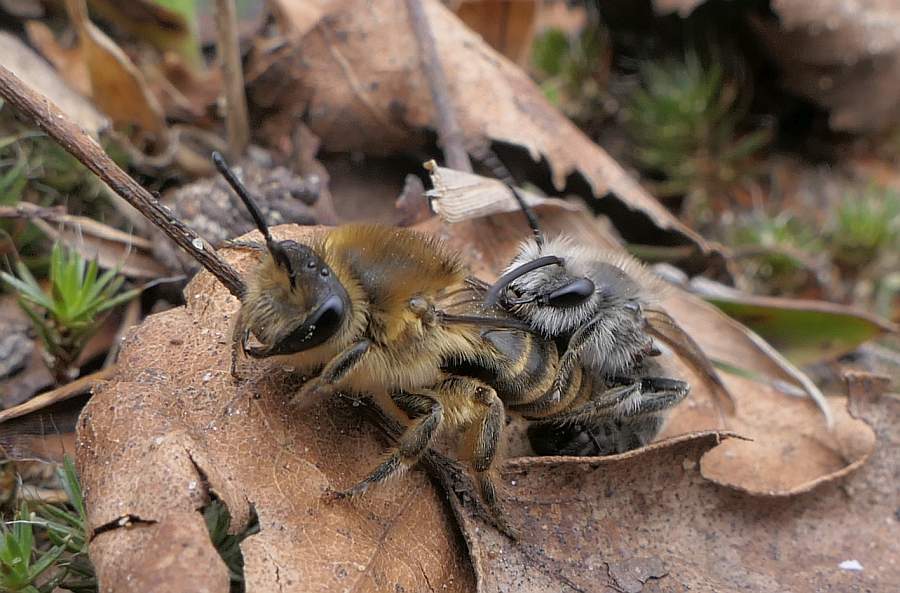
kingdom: Animalia
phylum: Arthropoda
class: Insecta
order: Hymenoptera
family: Colletidae
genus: Colletes
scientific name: Colletes inaequalis
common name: Unequal cellophane bee
